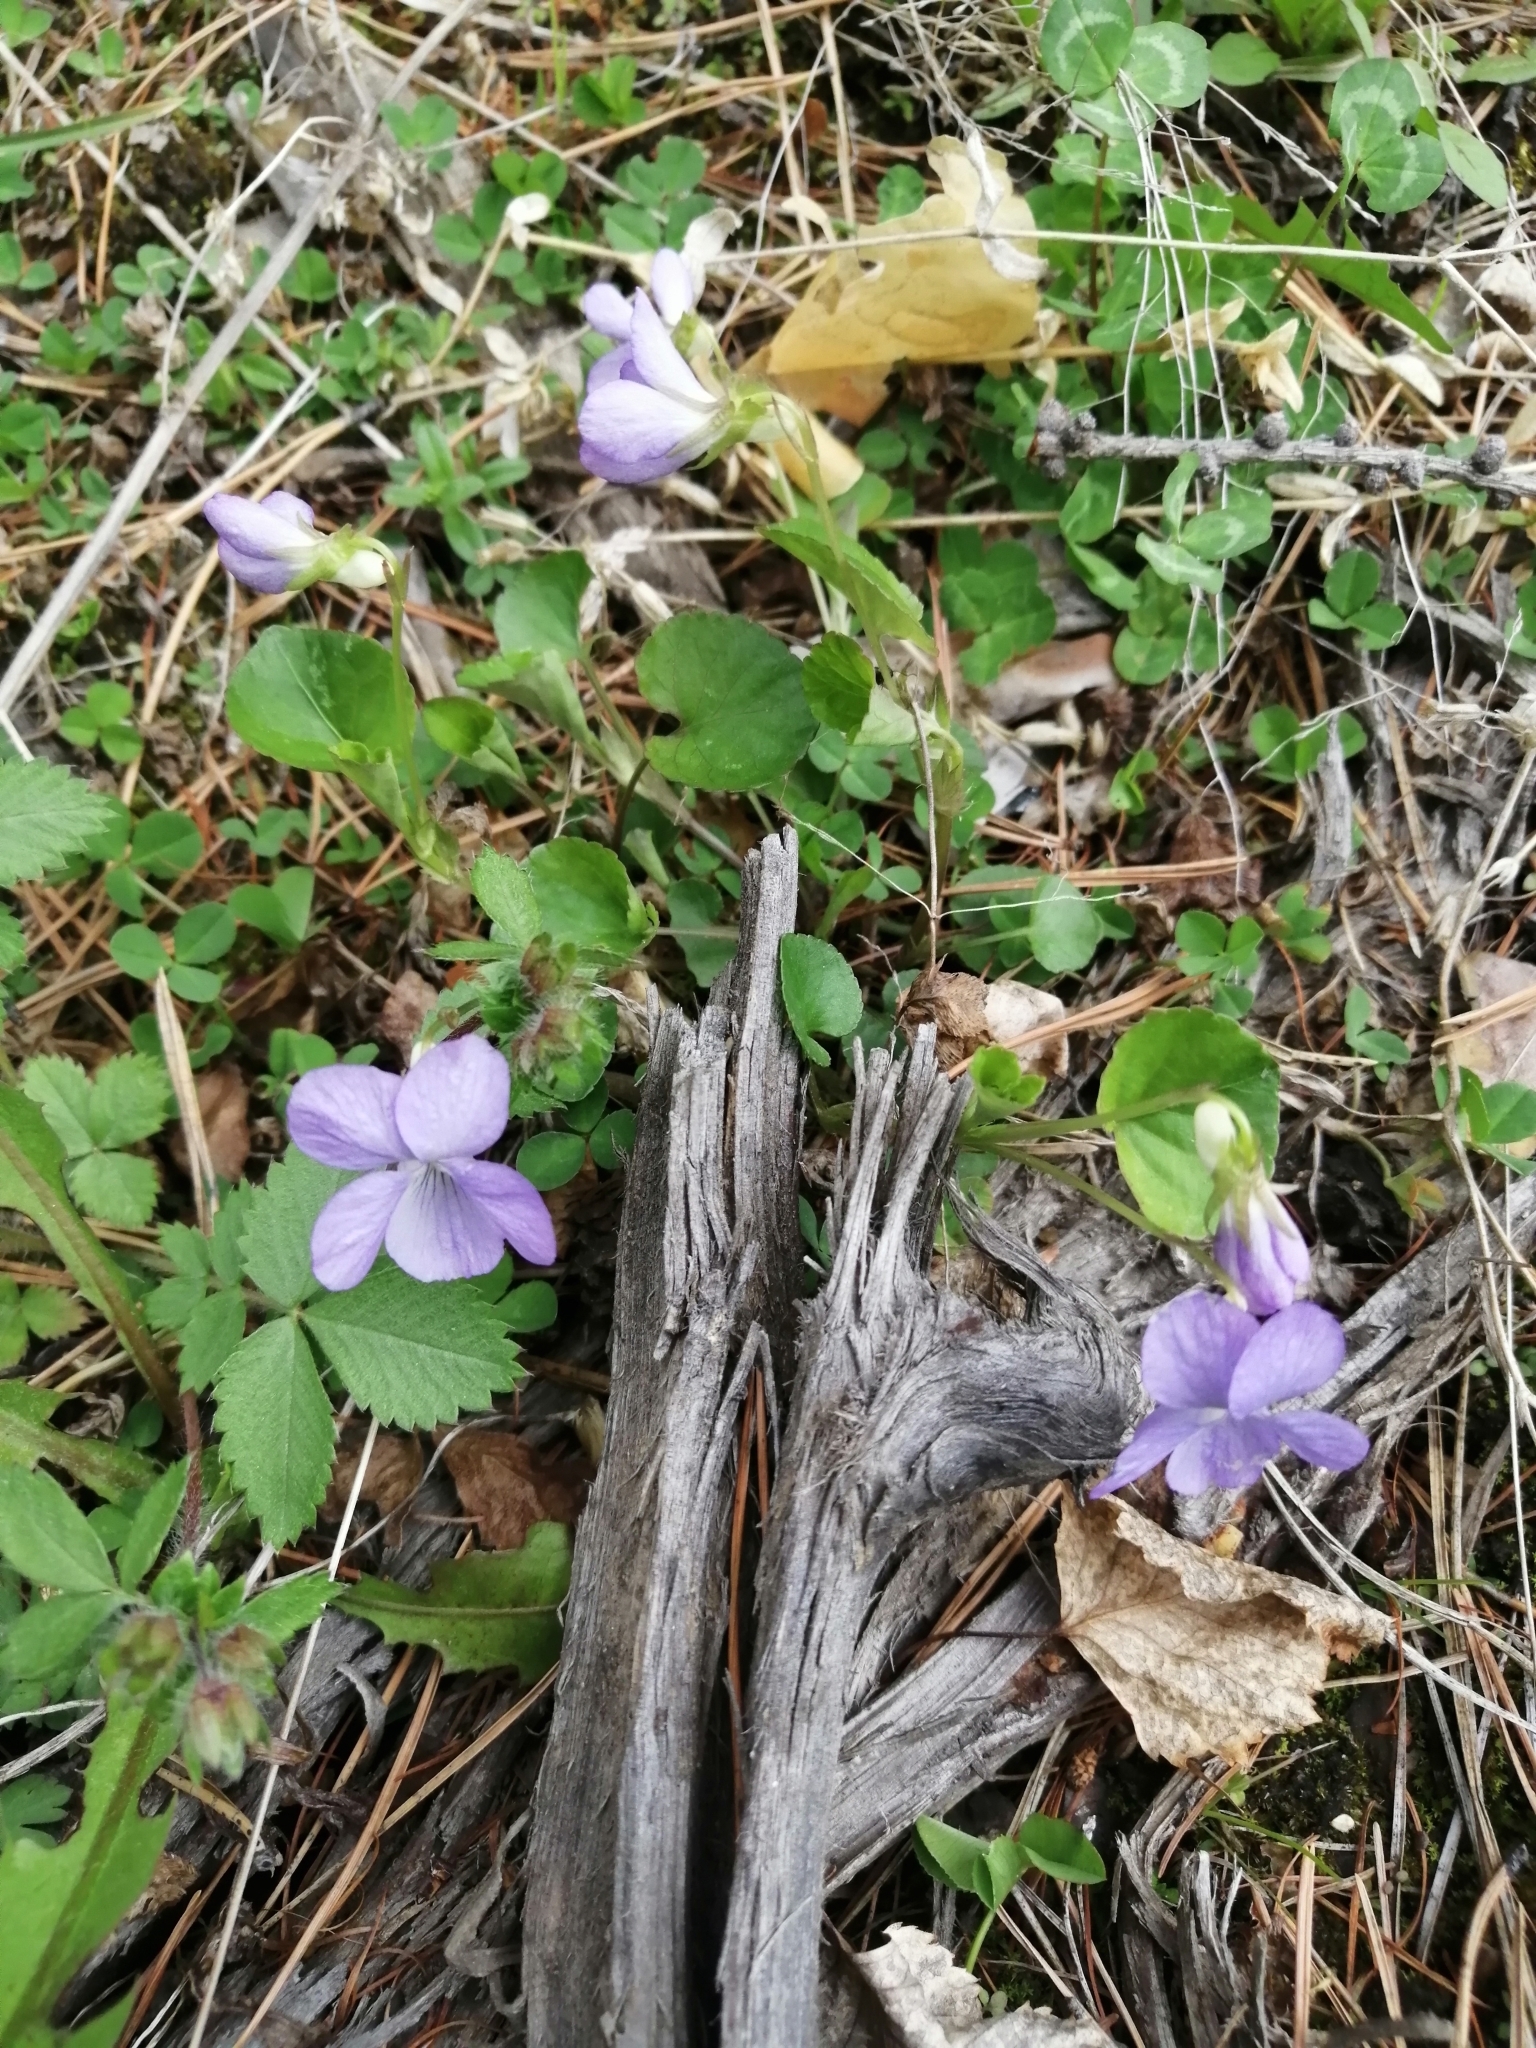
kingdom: Plantae
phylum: Tracheophyta
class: Magnoliopsida
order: Malpighiales
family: Violaceae
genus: Viola
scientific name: Viola sacchalinensis
